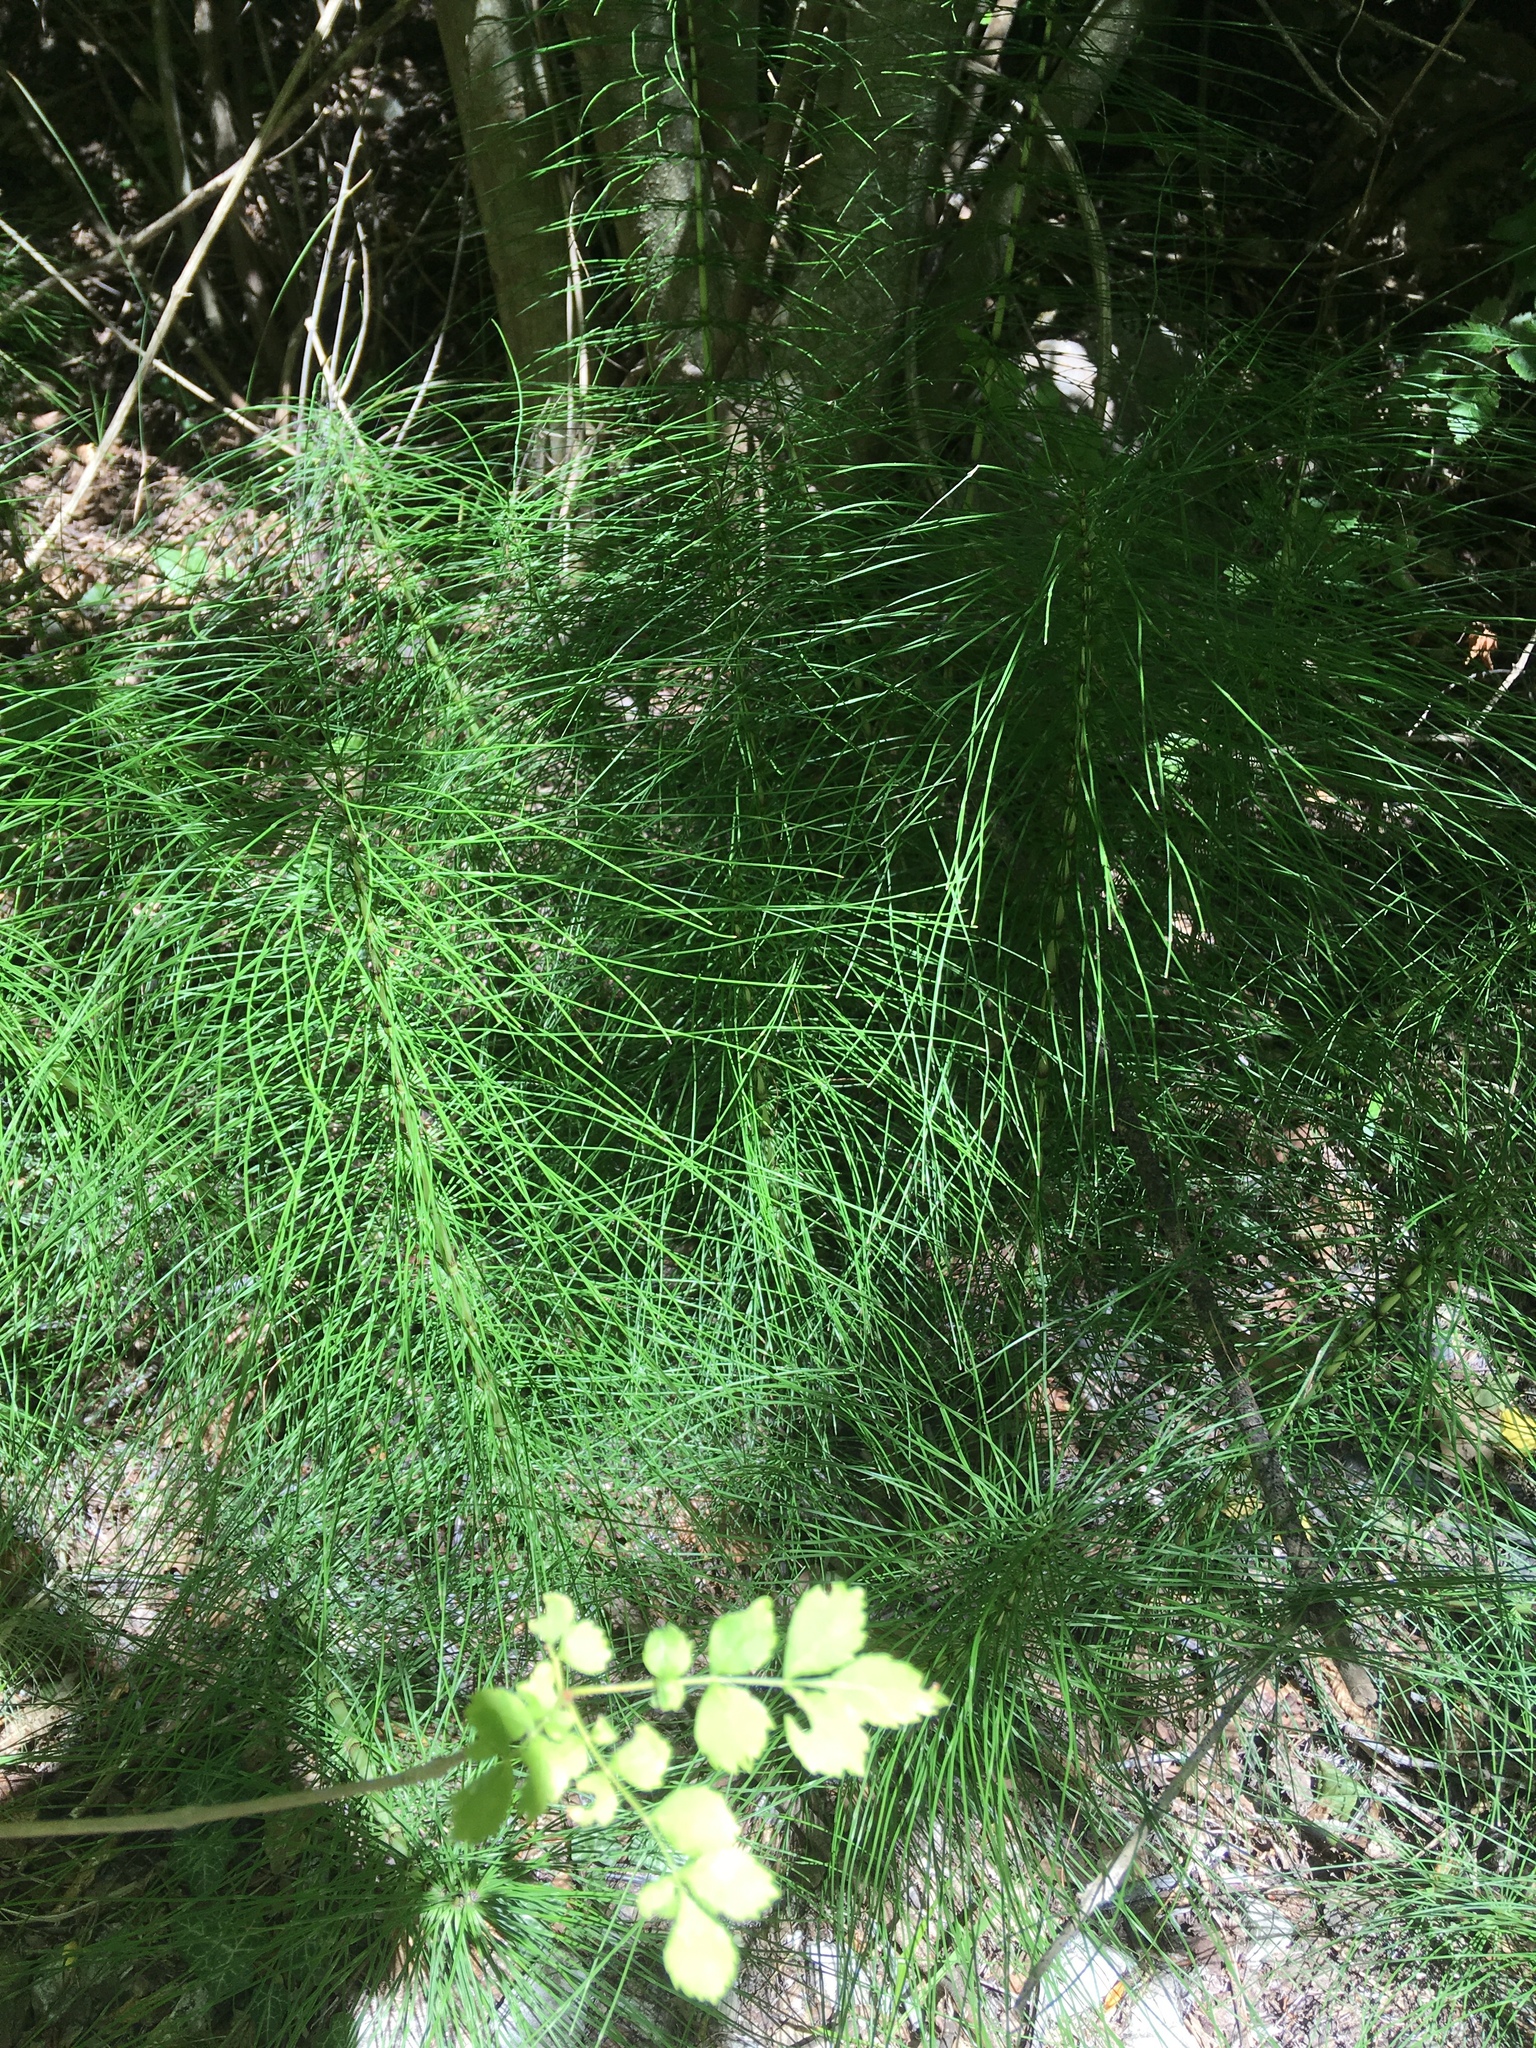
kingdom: Plantae
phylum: Tracheophyta
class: Polypodiopsida
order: Equisetales
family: Equisetaceae
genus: Equisetum
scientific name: Equisetum telmateia
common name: Great horsetail
